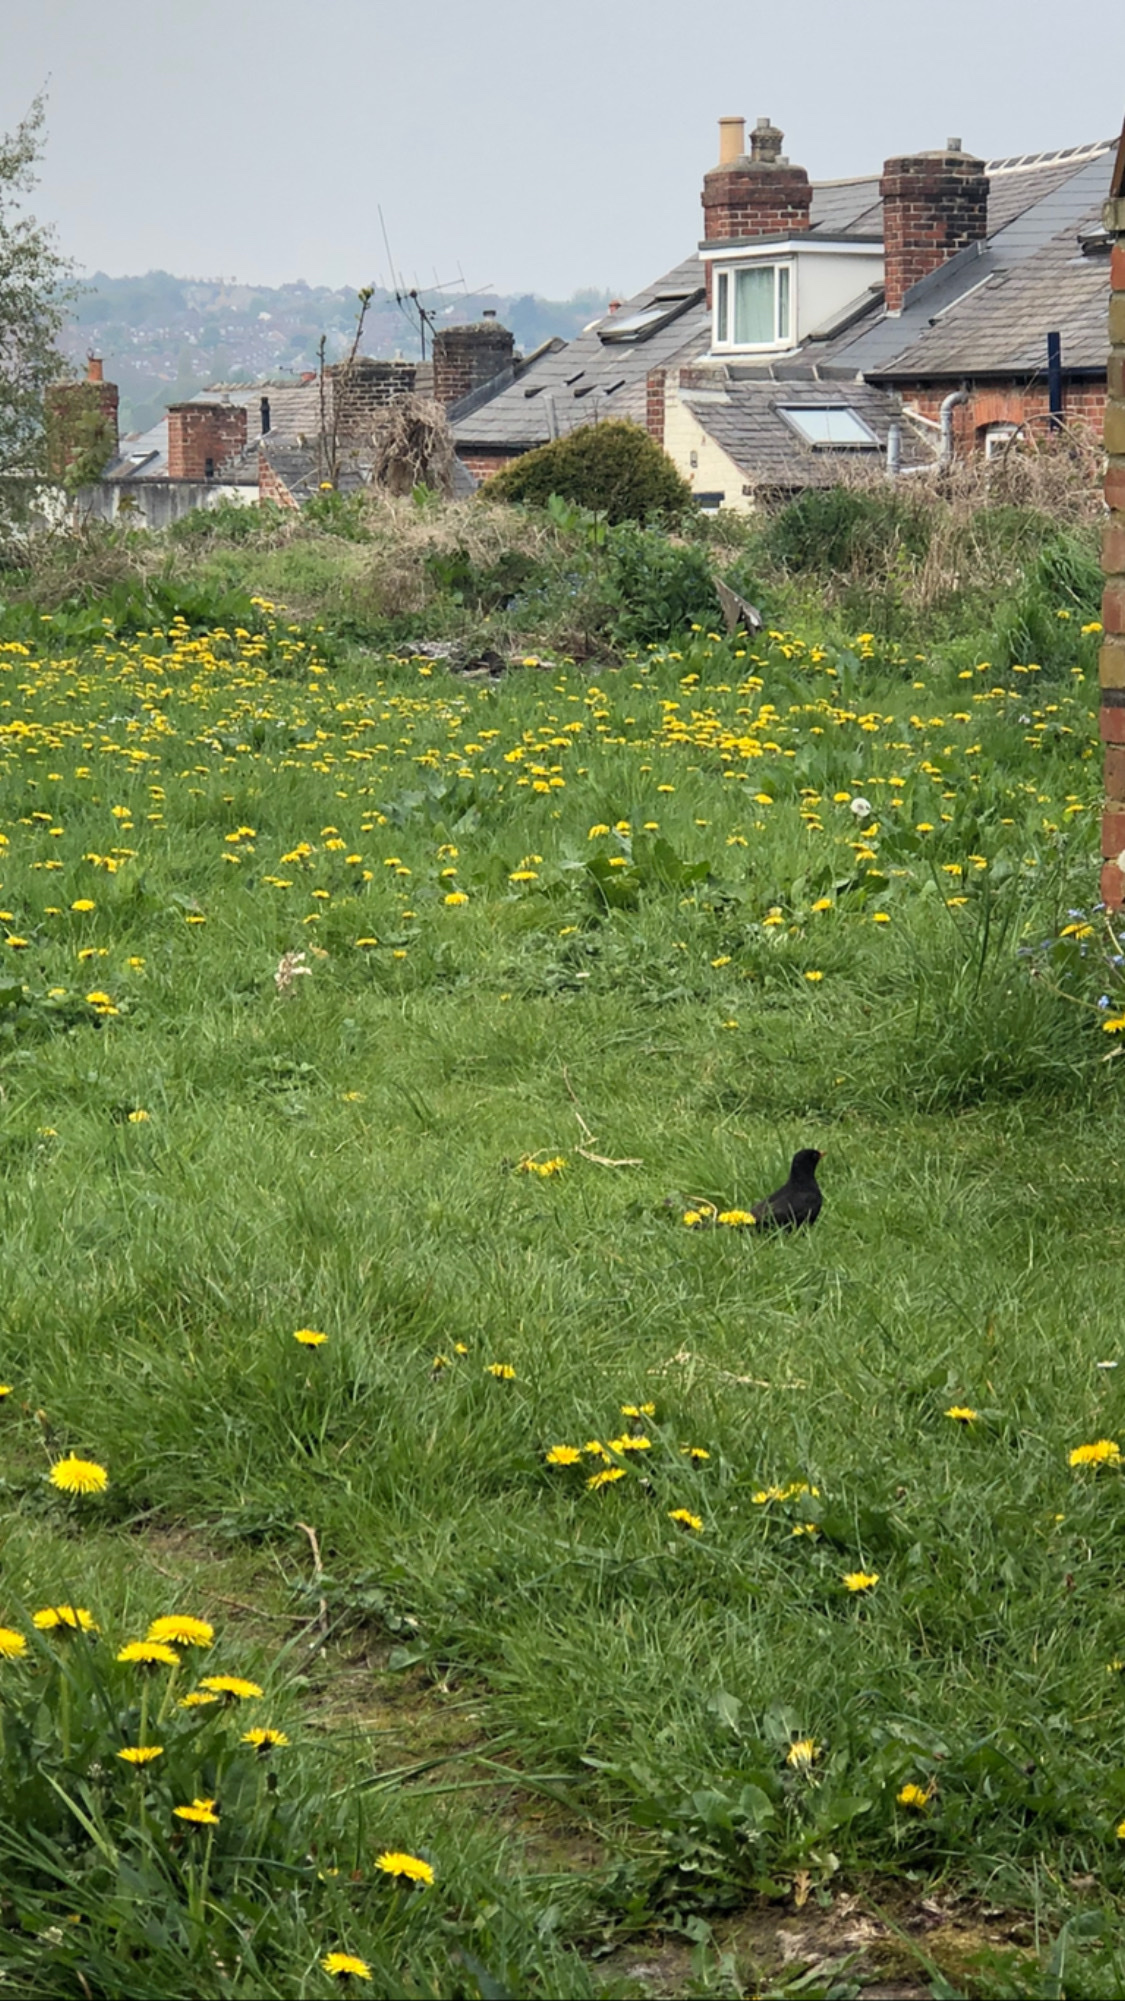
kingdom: Animalia
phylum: Chordata
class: Aves
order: Passeriformes
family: Turdidae
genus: Turdus
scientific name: Turdus merula
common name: Common blackbird
